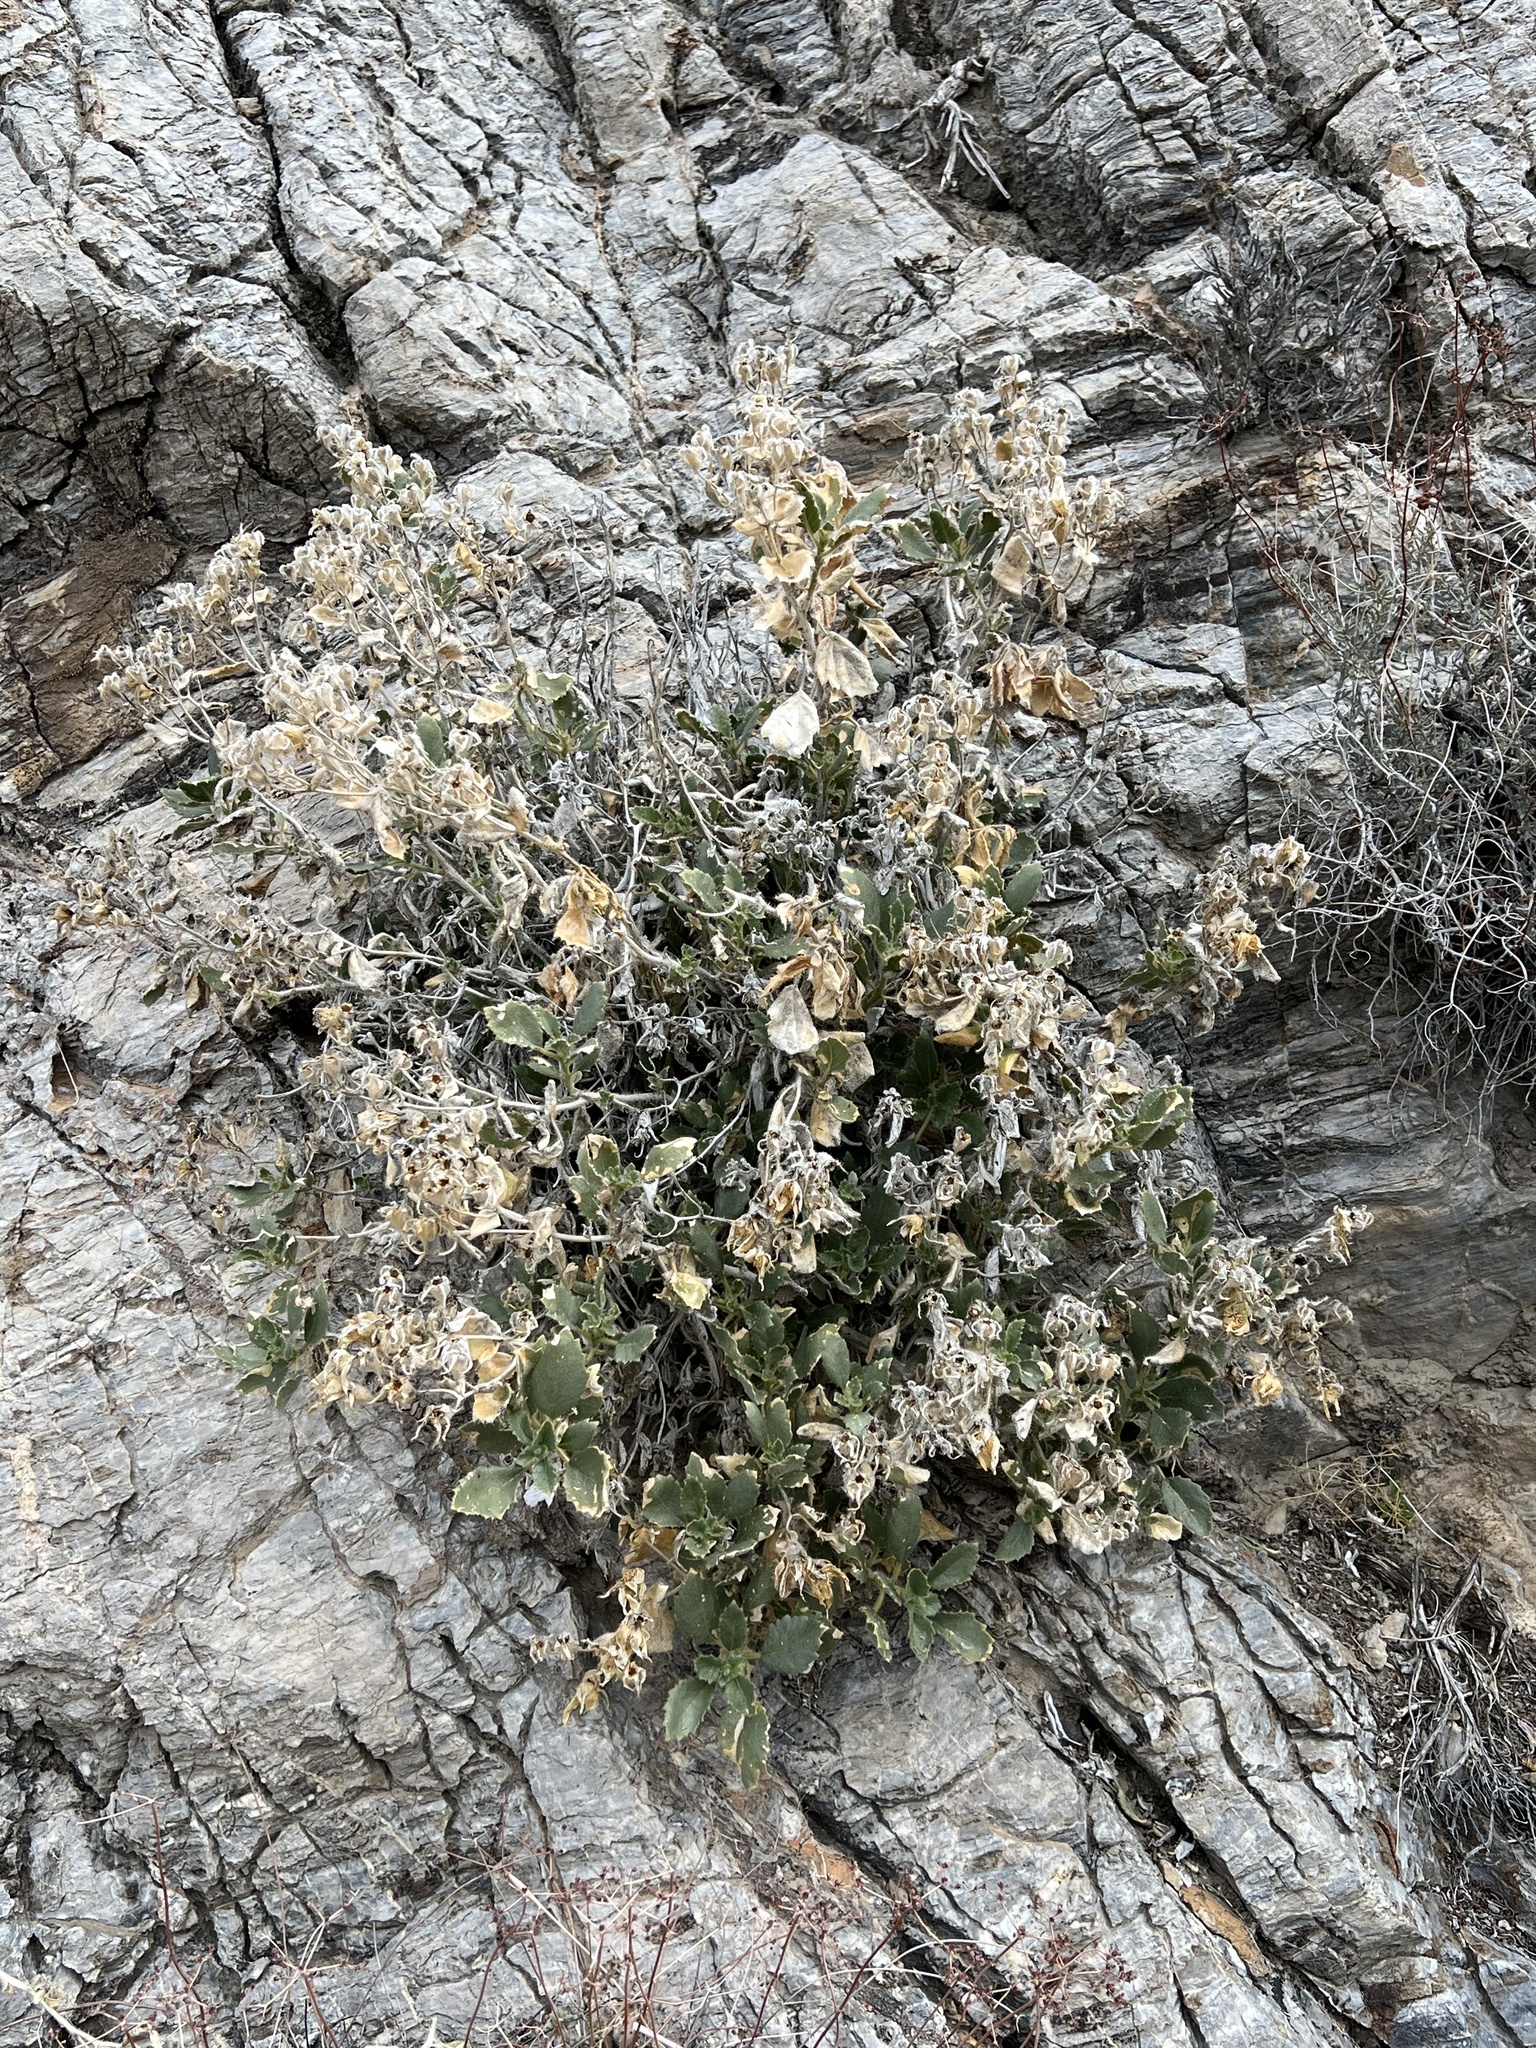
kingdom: Plantae
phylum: Tracheophyta
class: Magnoliopsida
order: Cornales
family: Loasaceae
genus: Eucnide
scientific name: Eucnide urens
